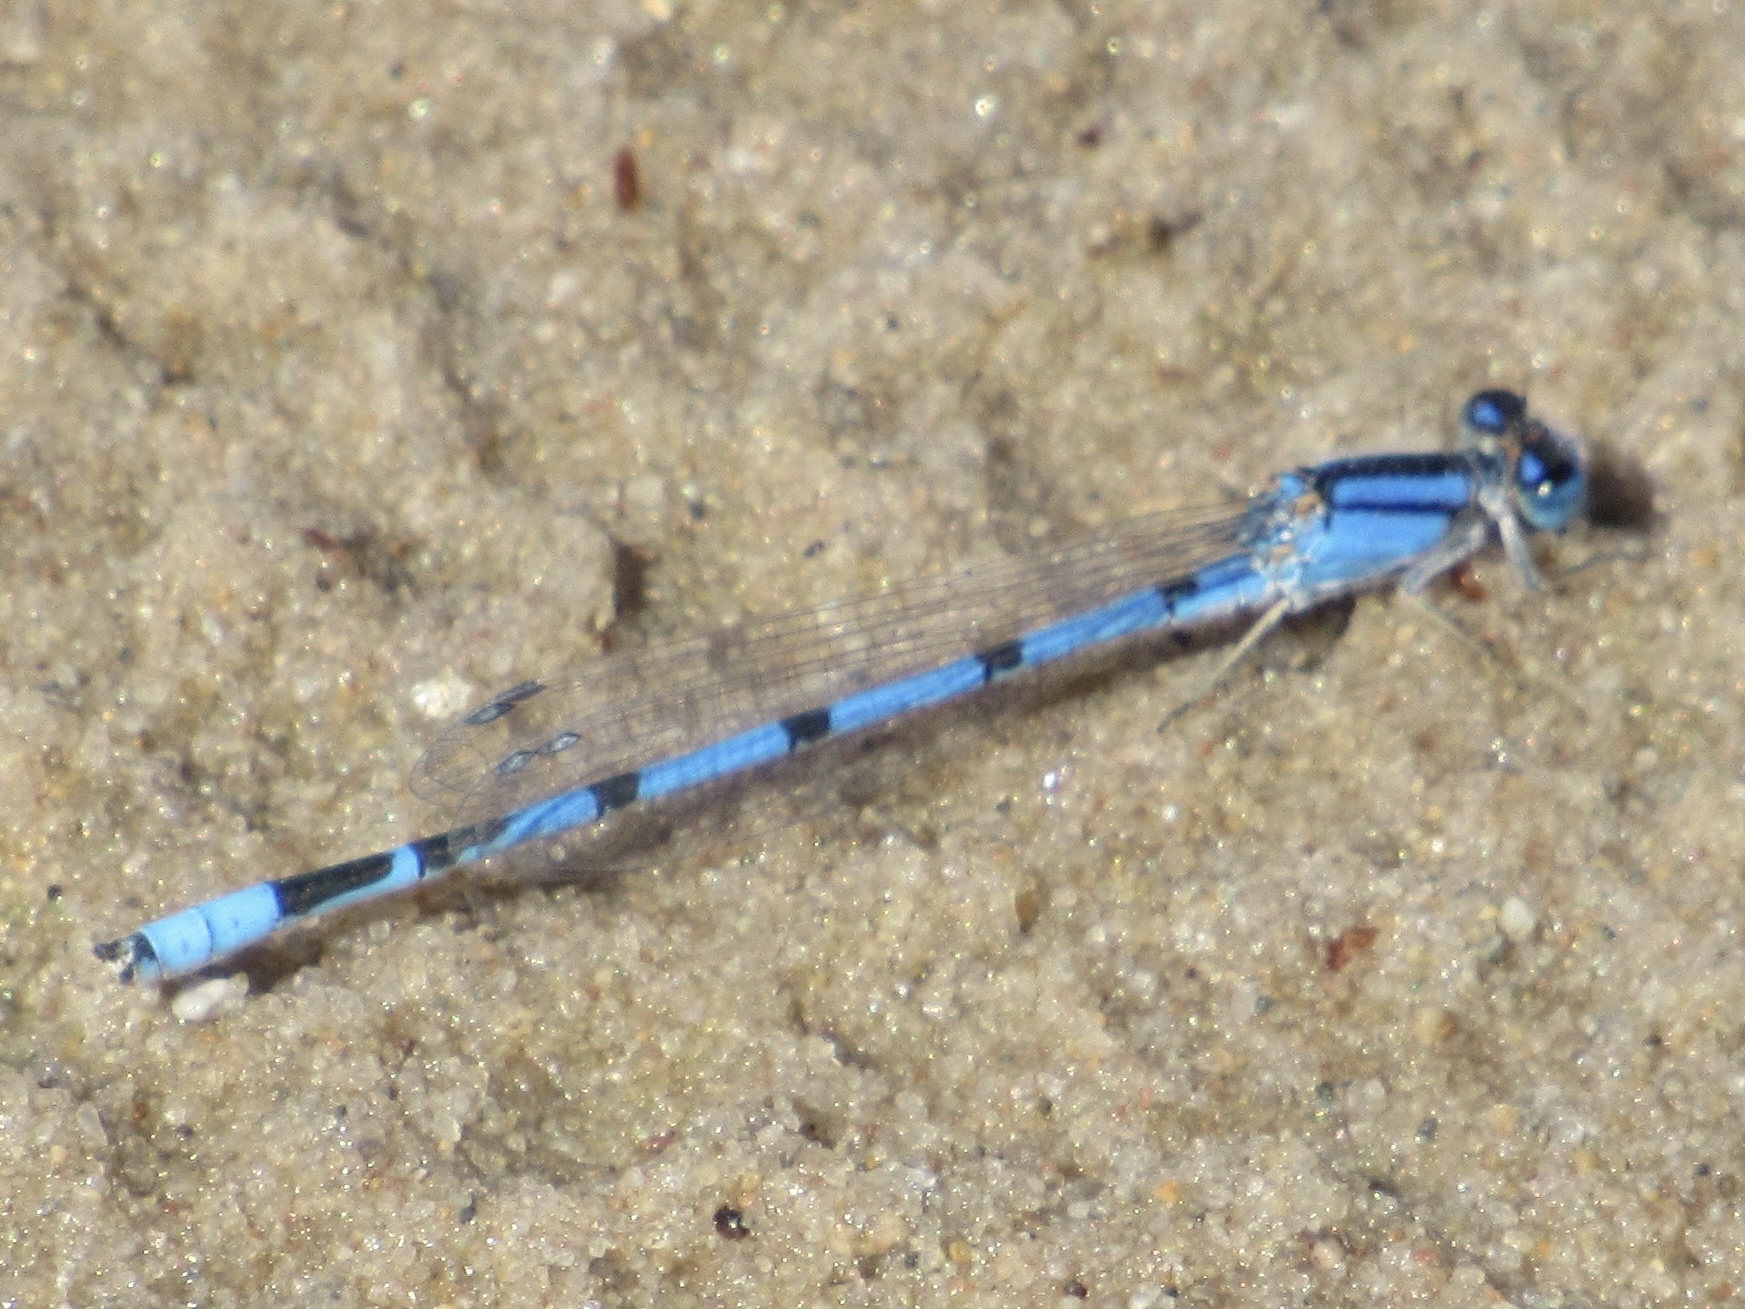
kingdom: Animalia
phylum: Arthropoda
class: Insecta
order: Odonata
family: Coenagrionidae
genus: Enallagma
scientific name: Enallagma civile
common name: Damselfly
